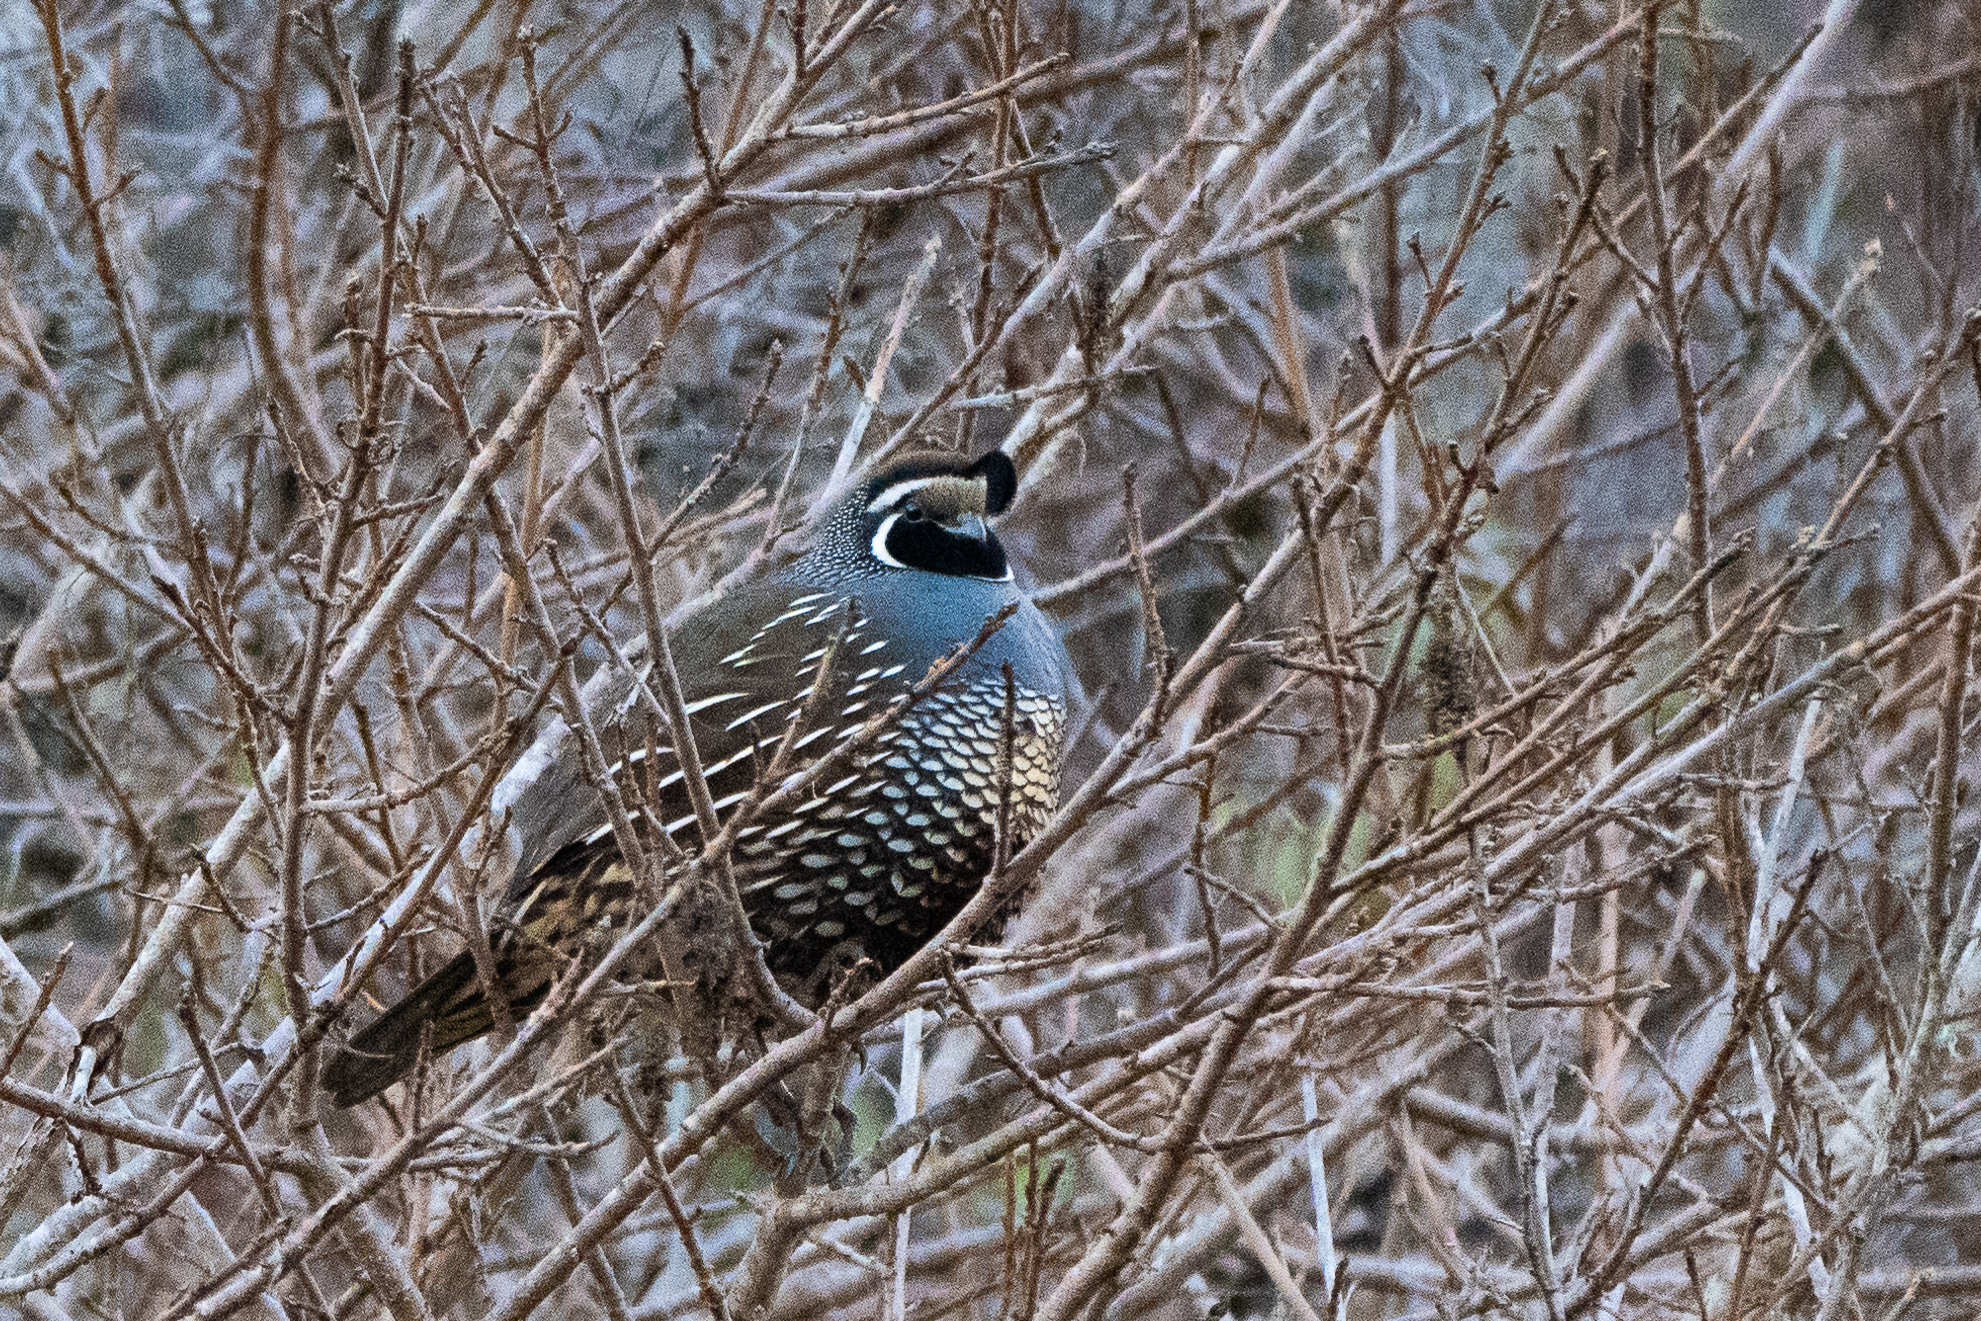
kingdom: Animalia
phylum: Chordata
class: Aves
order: Galliformes
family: Odontophoridae
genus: Callipepla
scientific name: Callipepla californica
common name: California quail
